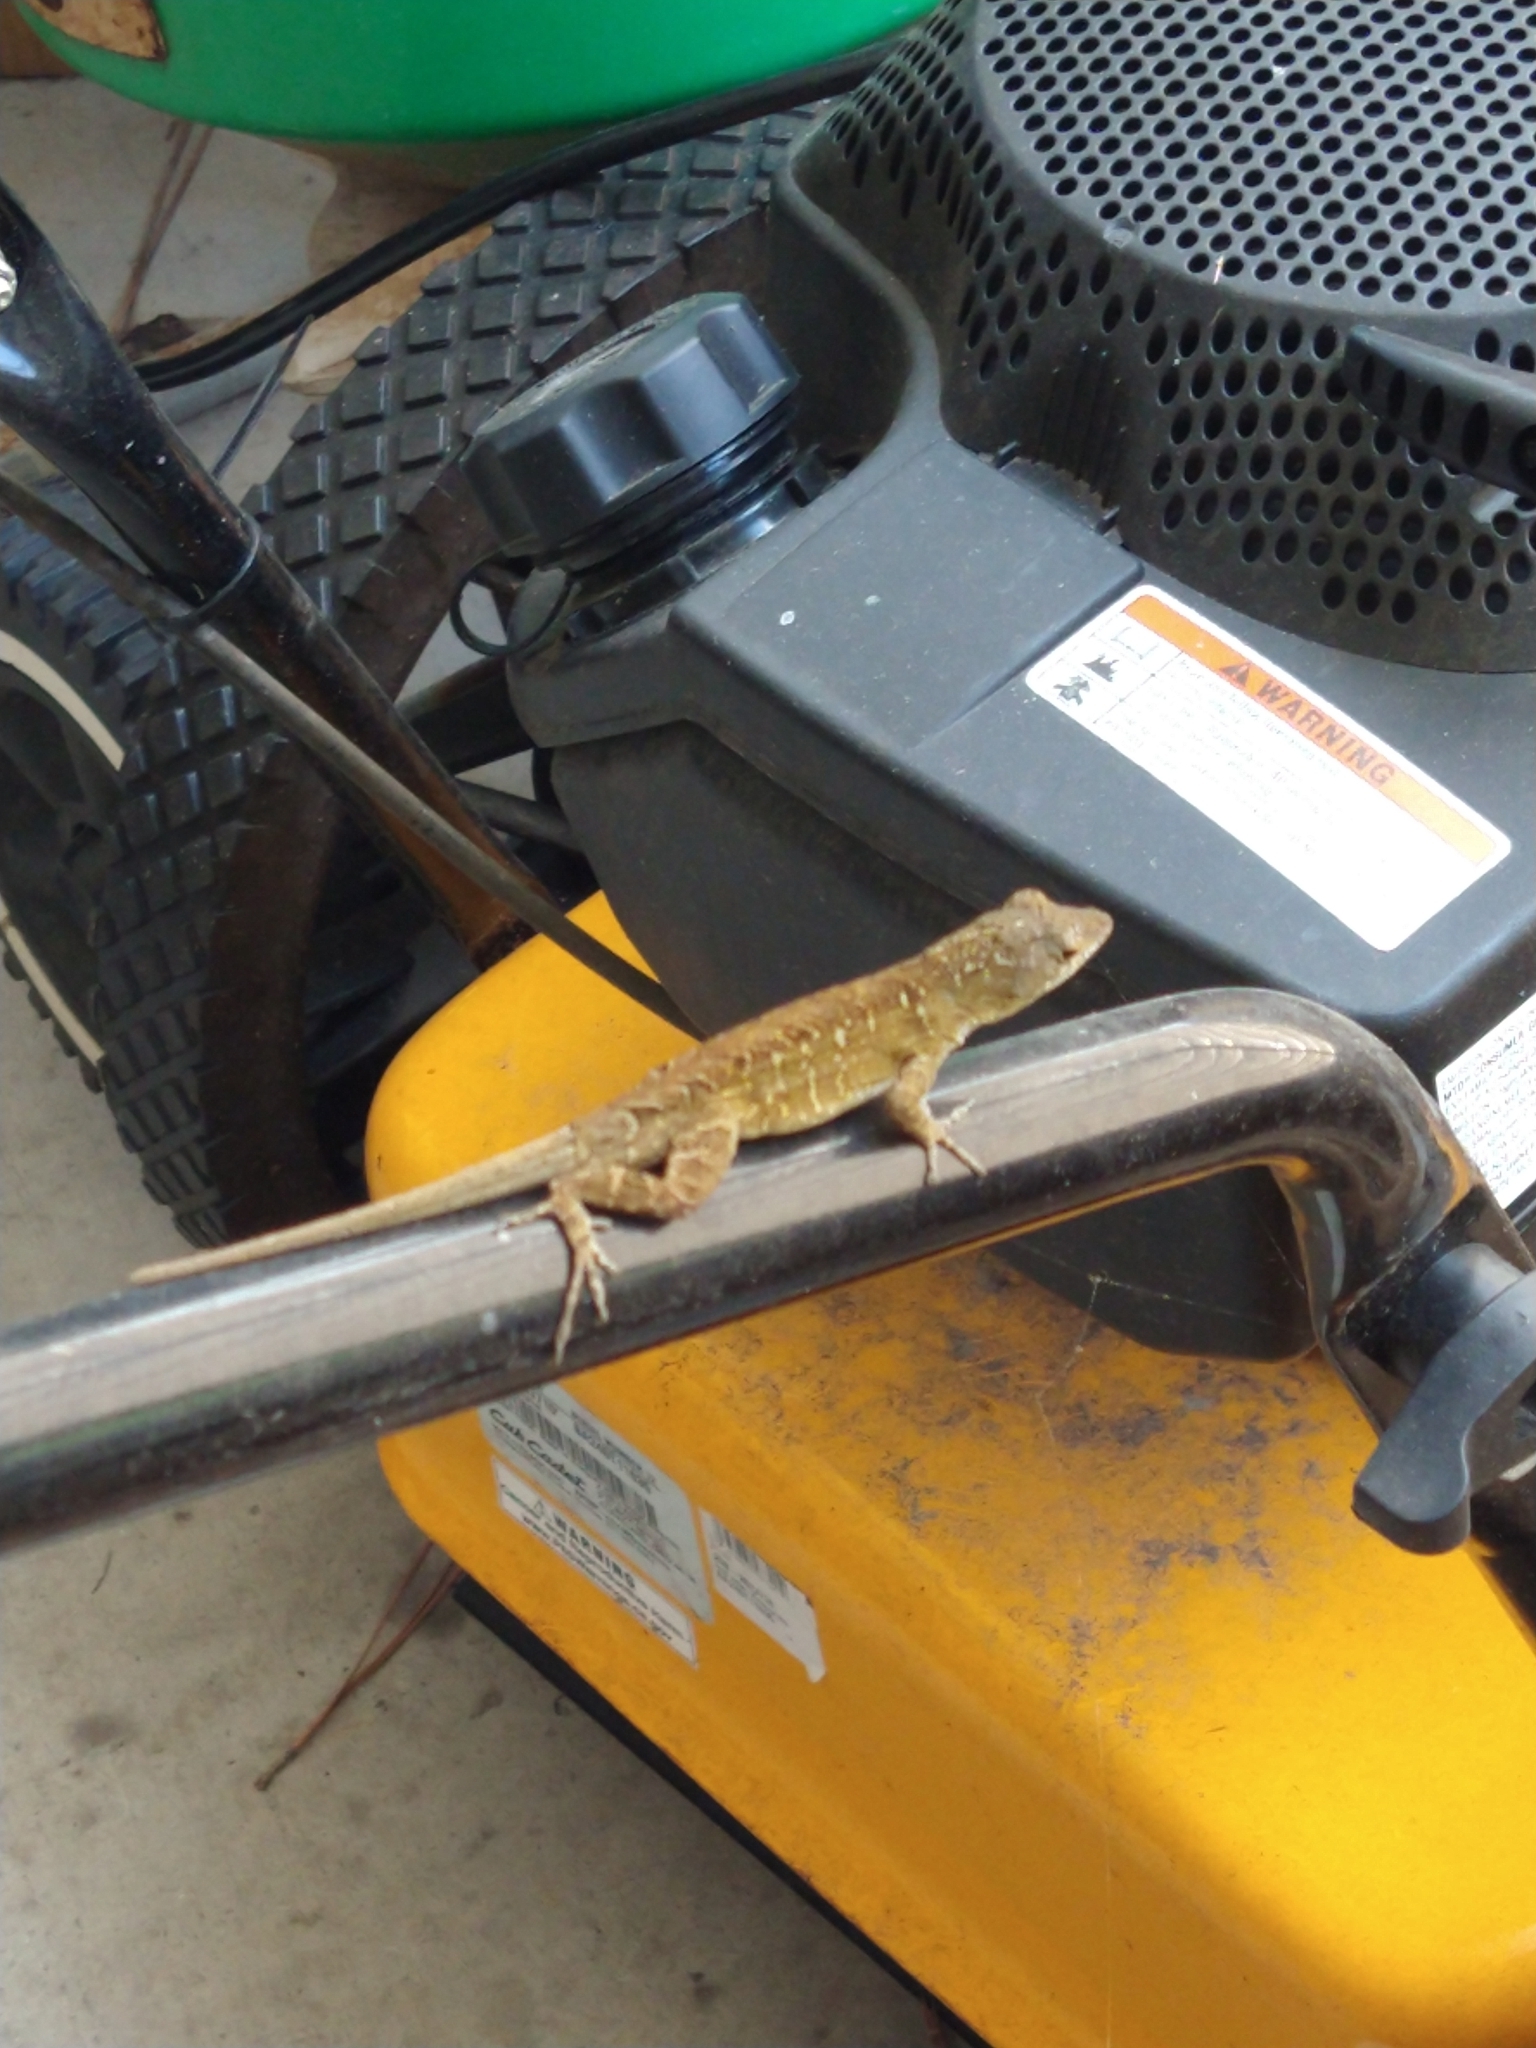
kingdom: Animalia
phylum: Chordata
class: Squamata
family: Dactyloidae
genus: Anolis
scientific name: Anolis sagrei
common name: Brown anole
